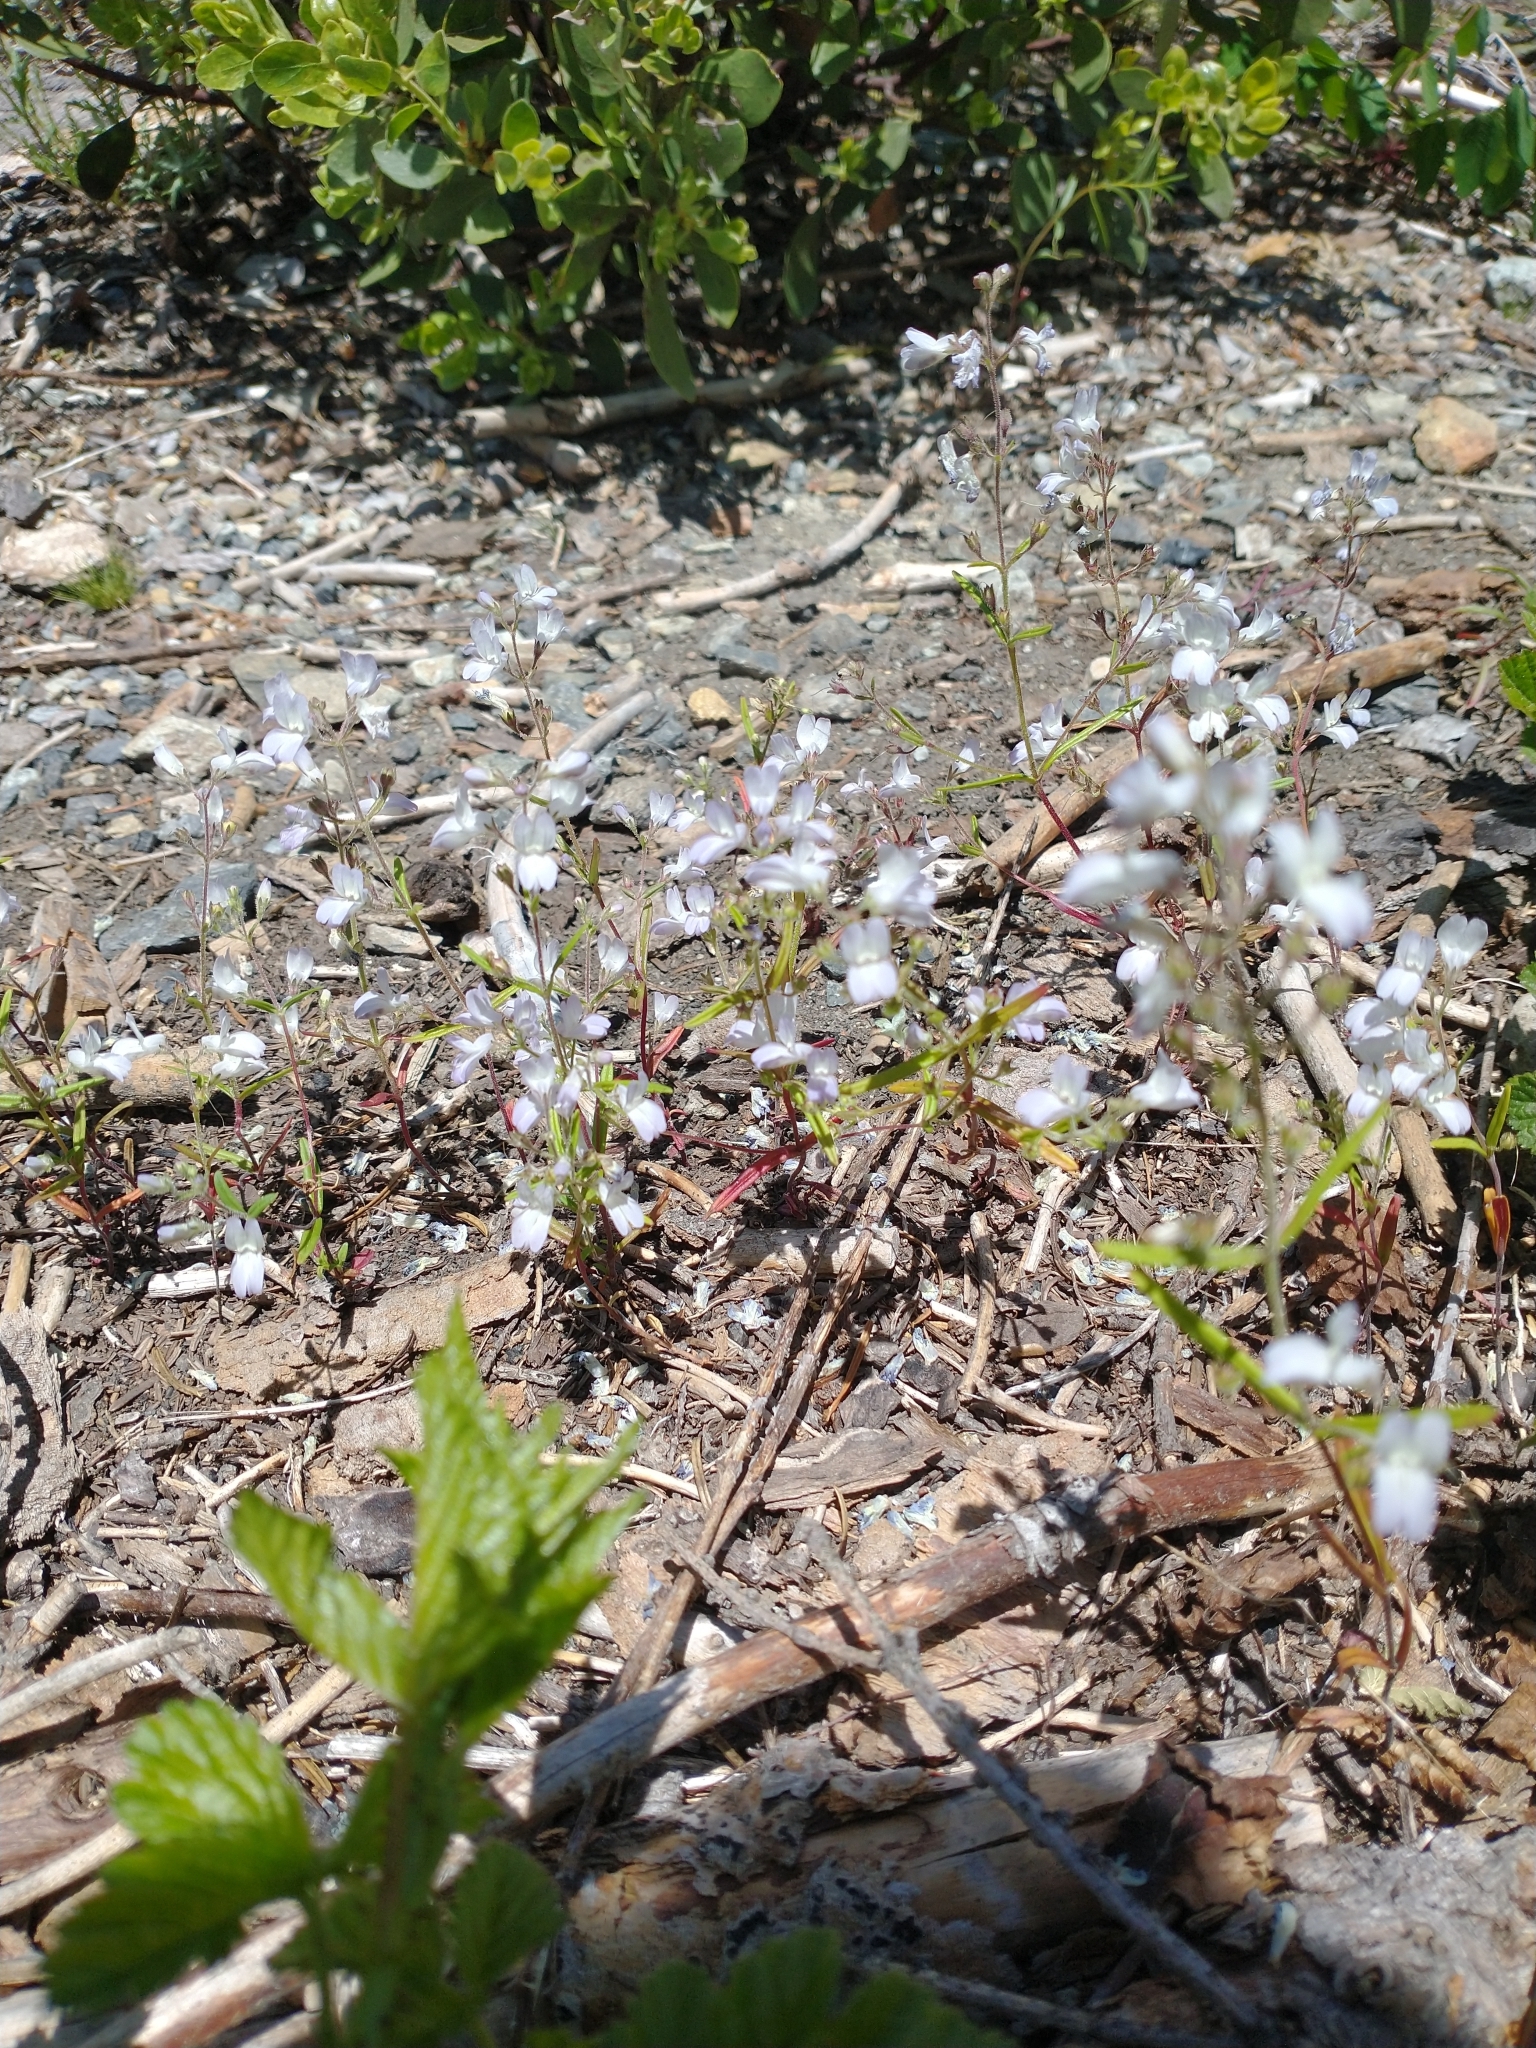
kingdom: Plantae
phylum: Tracheophyta
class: Magnoliopsida
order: Lamiales
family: Plantaginaceae
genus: Collinsia
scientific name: Collinsia linearis
